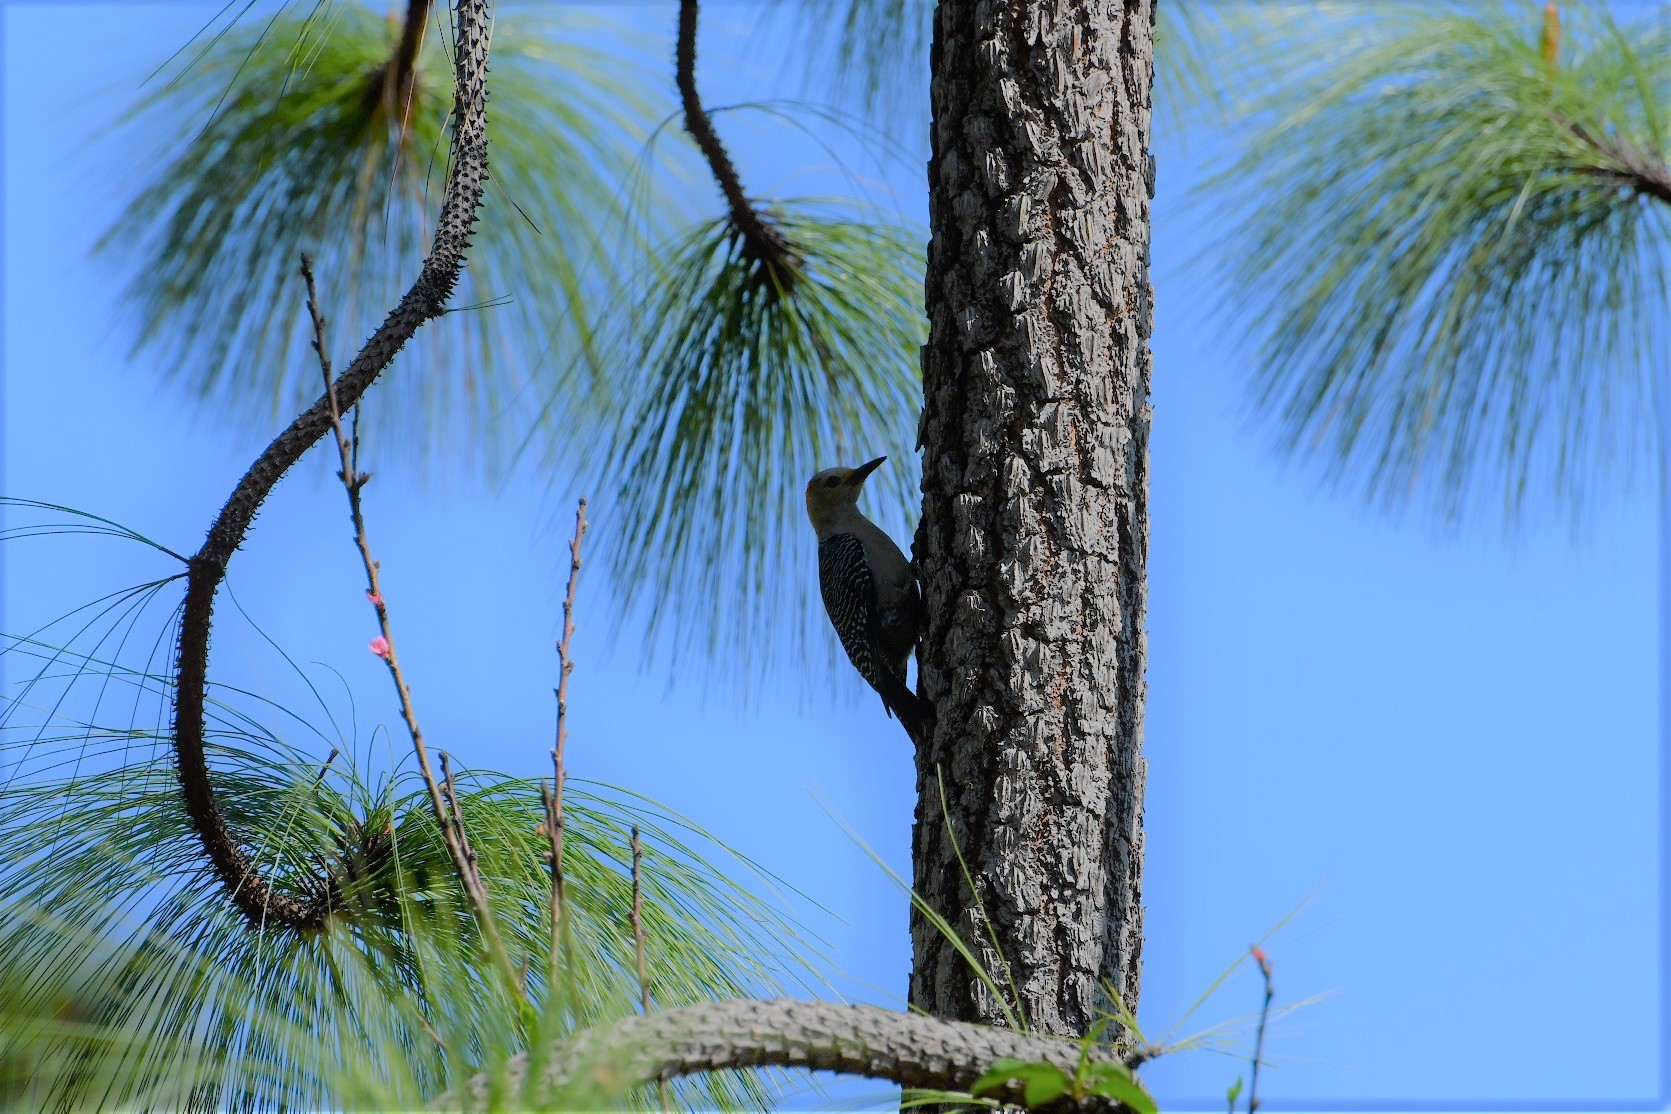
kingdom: Animalia
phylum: Chordata
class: Aves
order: Piciformes
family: Picidae
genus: Melanerpes
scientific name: Melanerpes aurifrons
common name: Golden-fronted woodpecker
